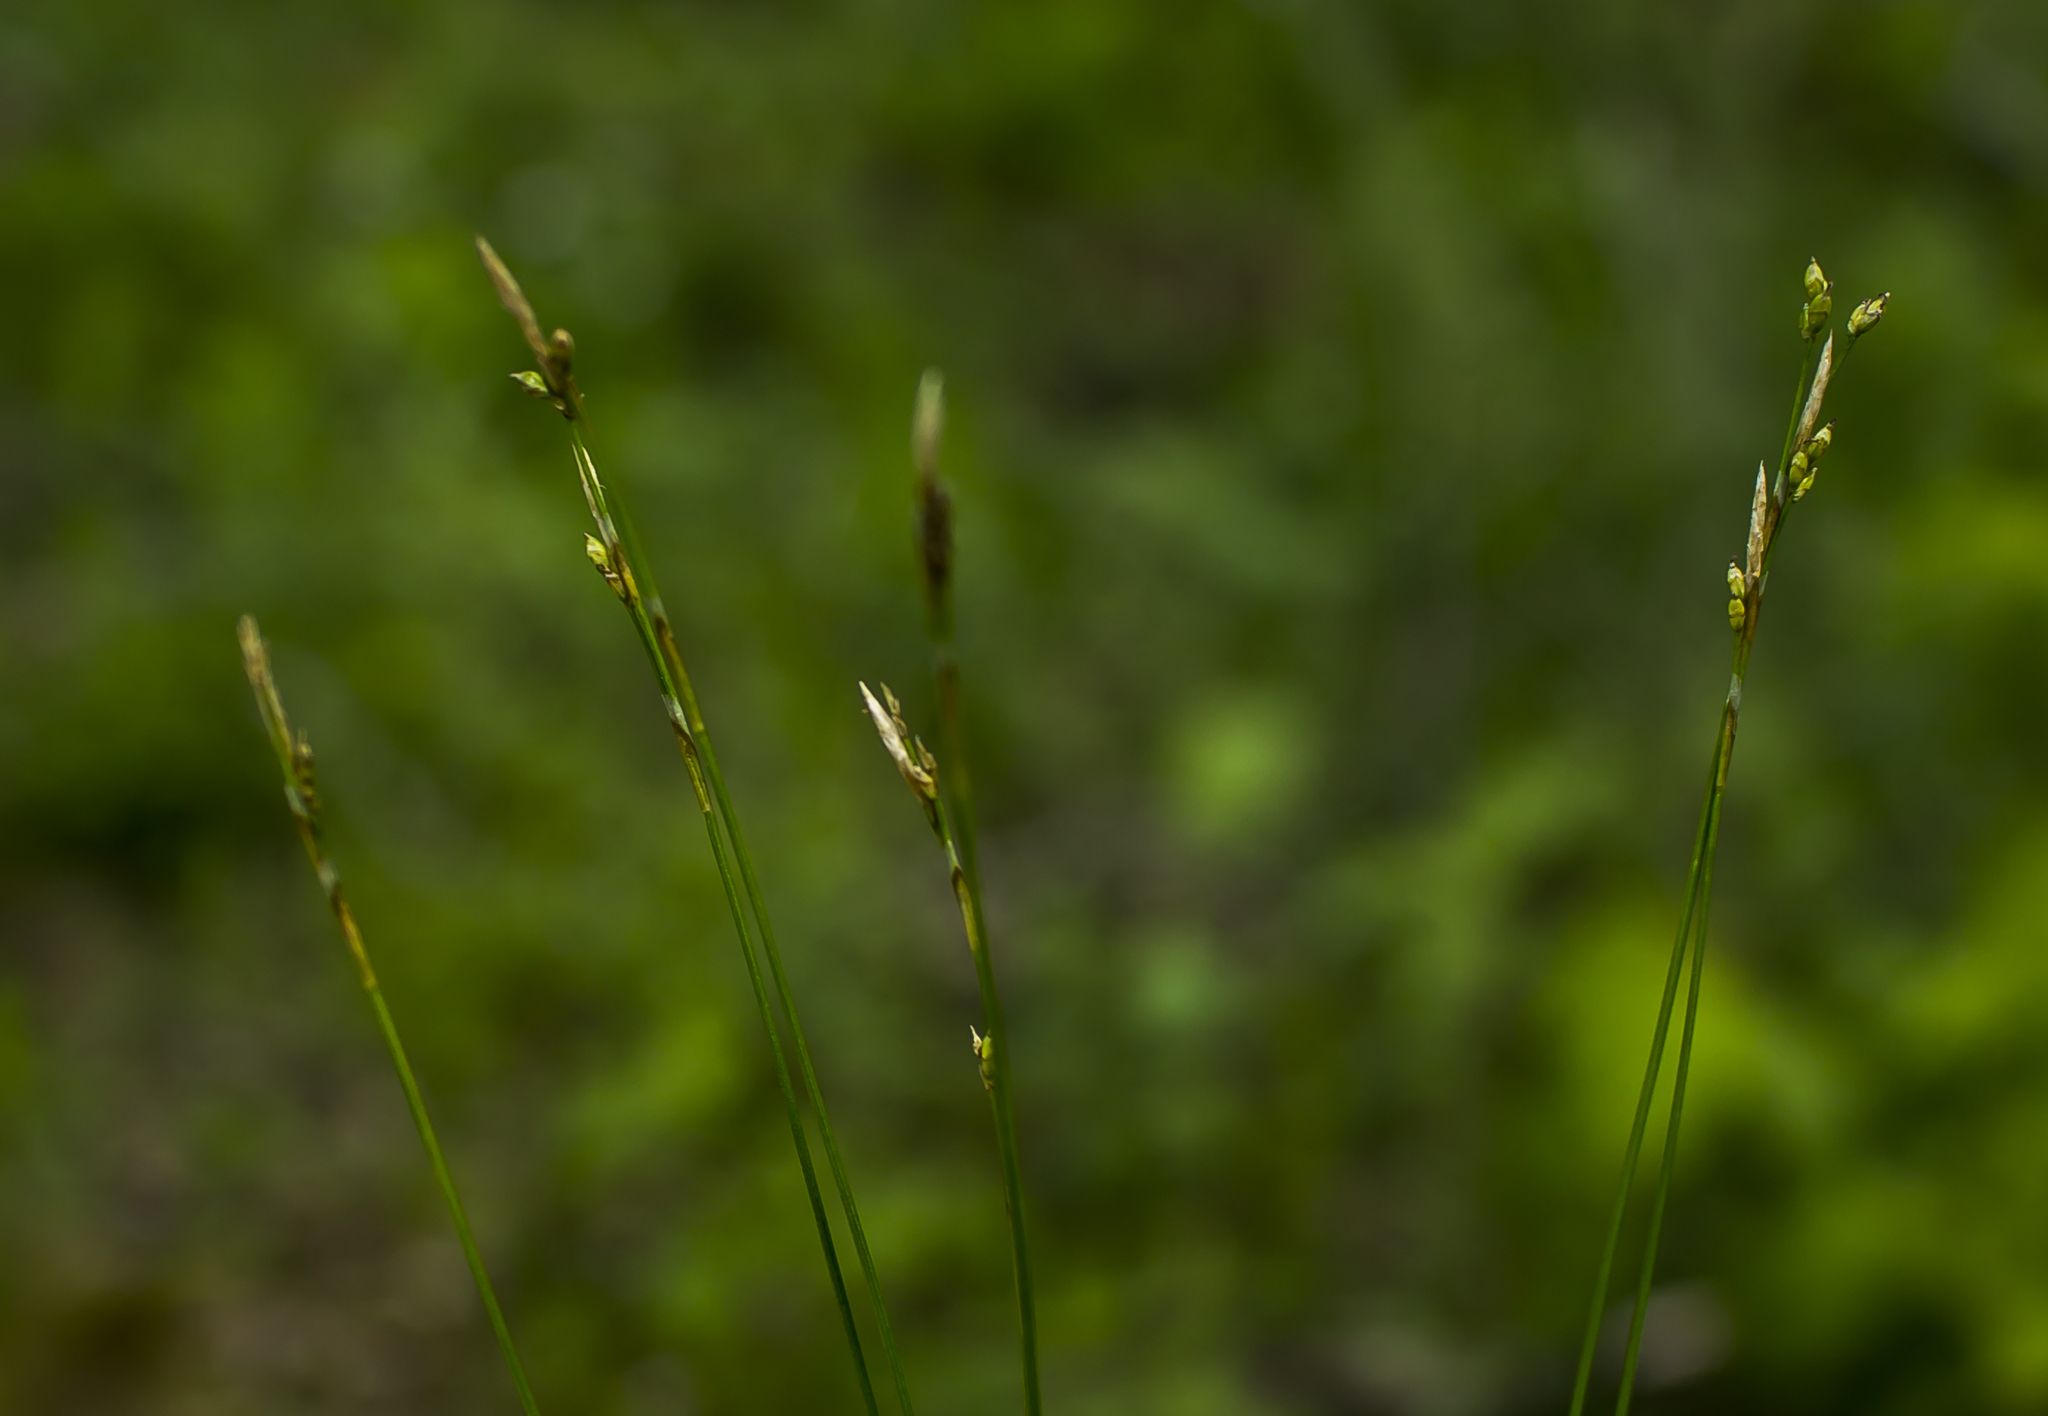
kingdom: Plantae
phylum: Tracheophyta
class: Liliopsida
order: Poales
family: Cyperaceae
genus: Carex
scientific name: Carex eburnea
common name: Bristle-leaved sedge
